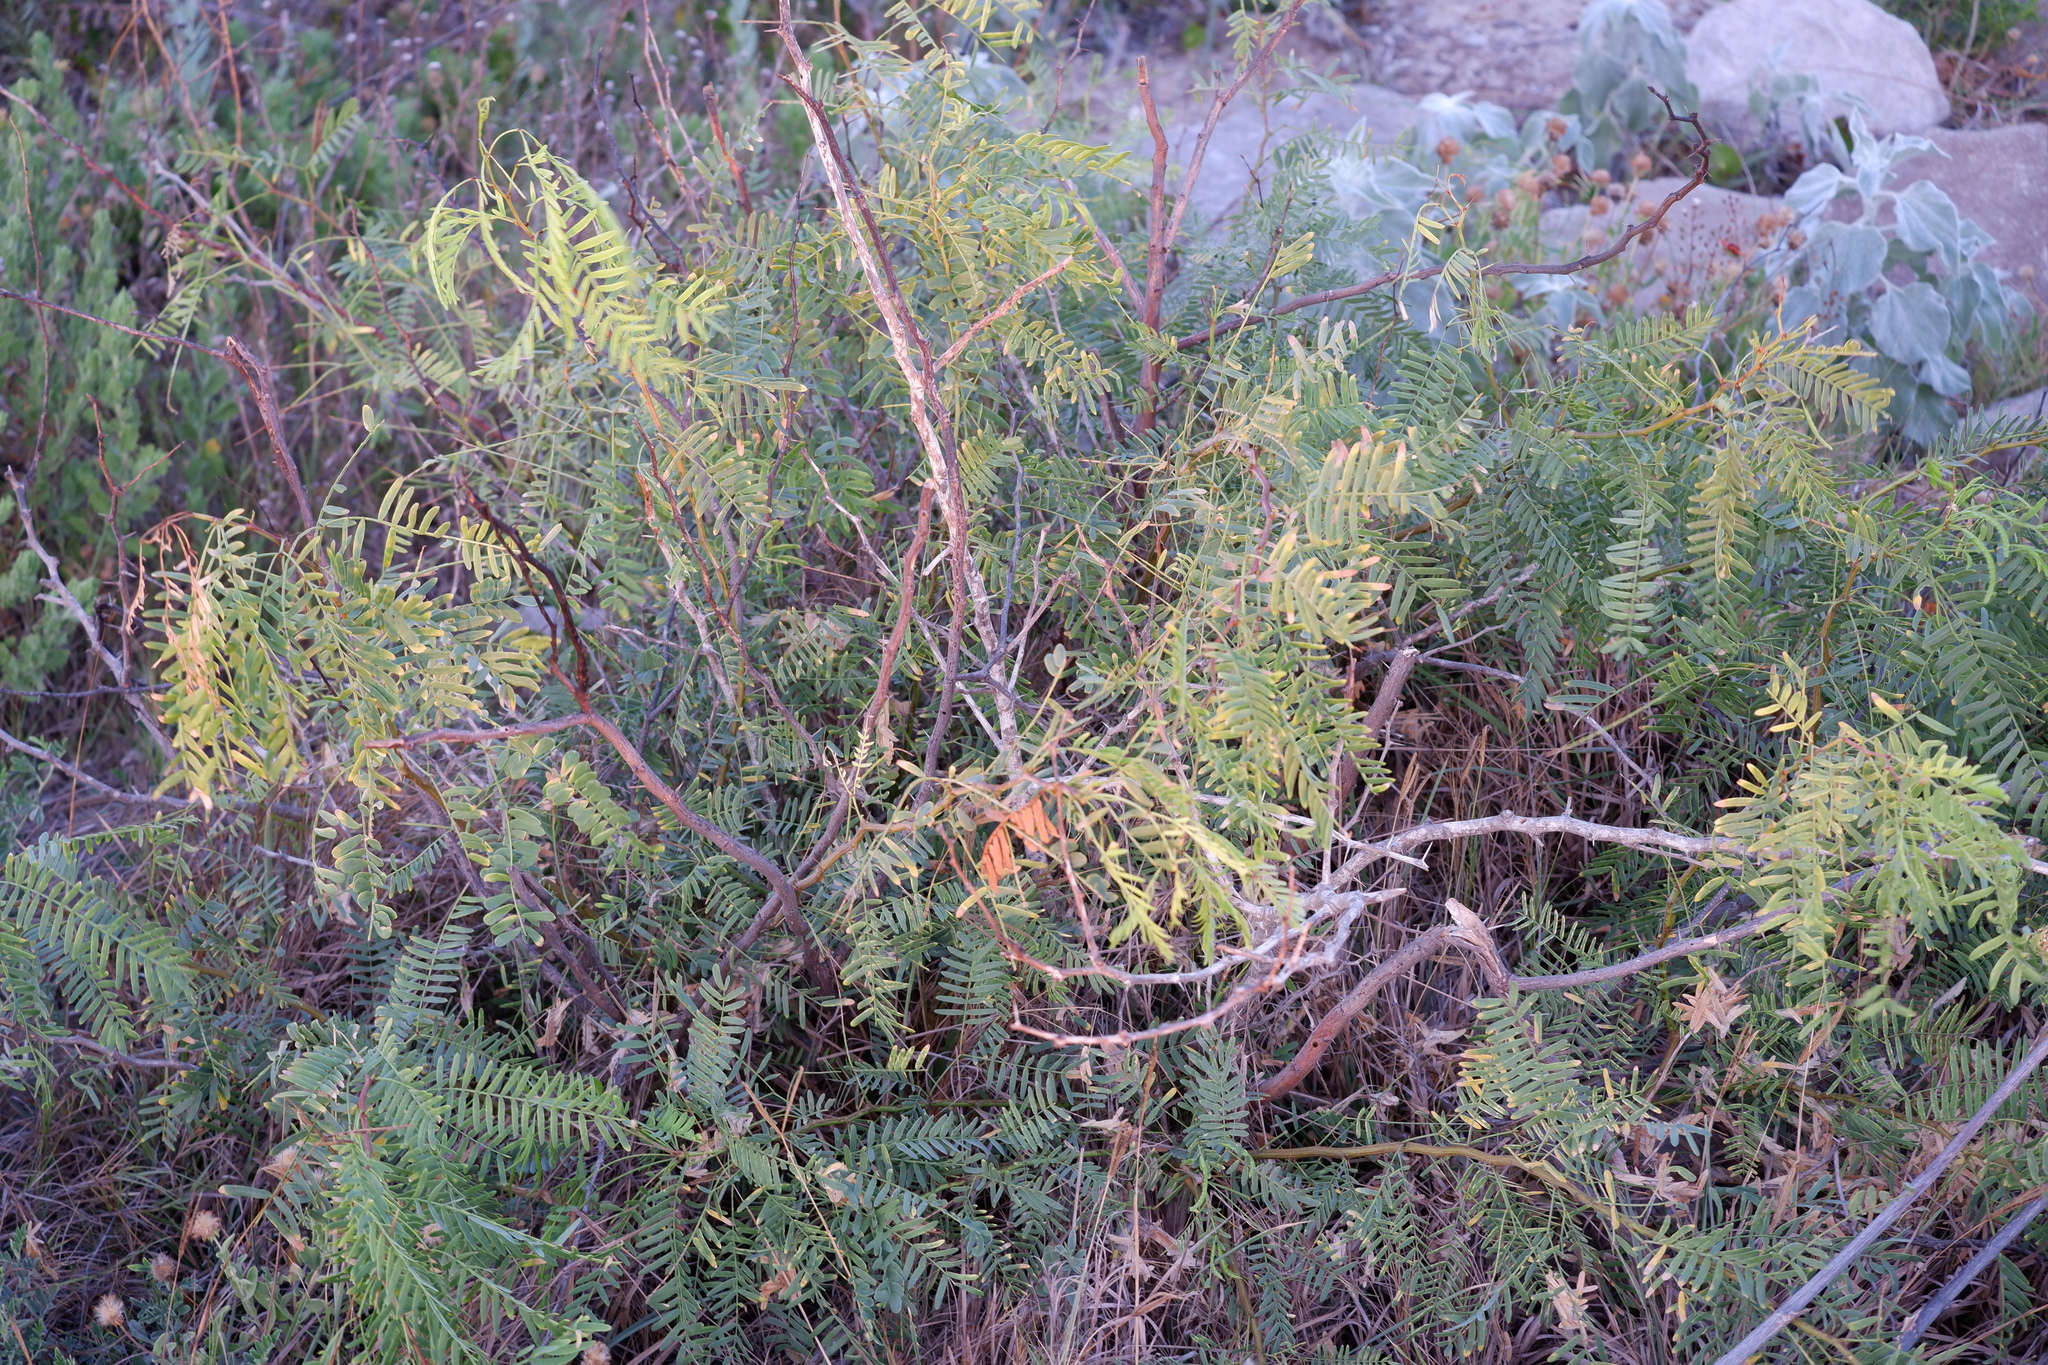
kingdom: Plantae
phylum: Tracheophyta
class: Magnoliopsida
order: Fabales
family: Fabaceae
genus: Prosopis
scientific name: Prosopis glandulosa
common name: Honey mesquite
